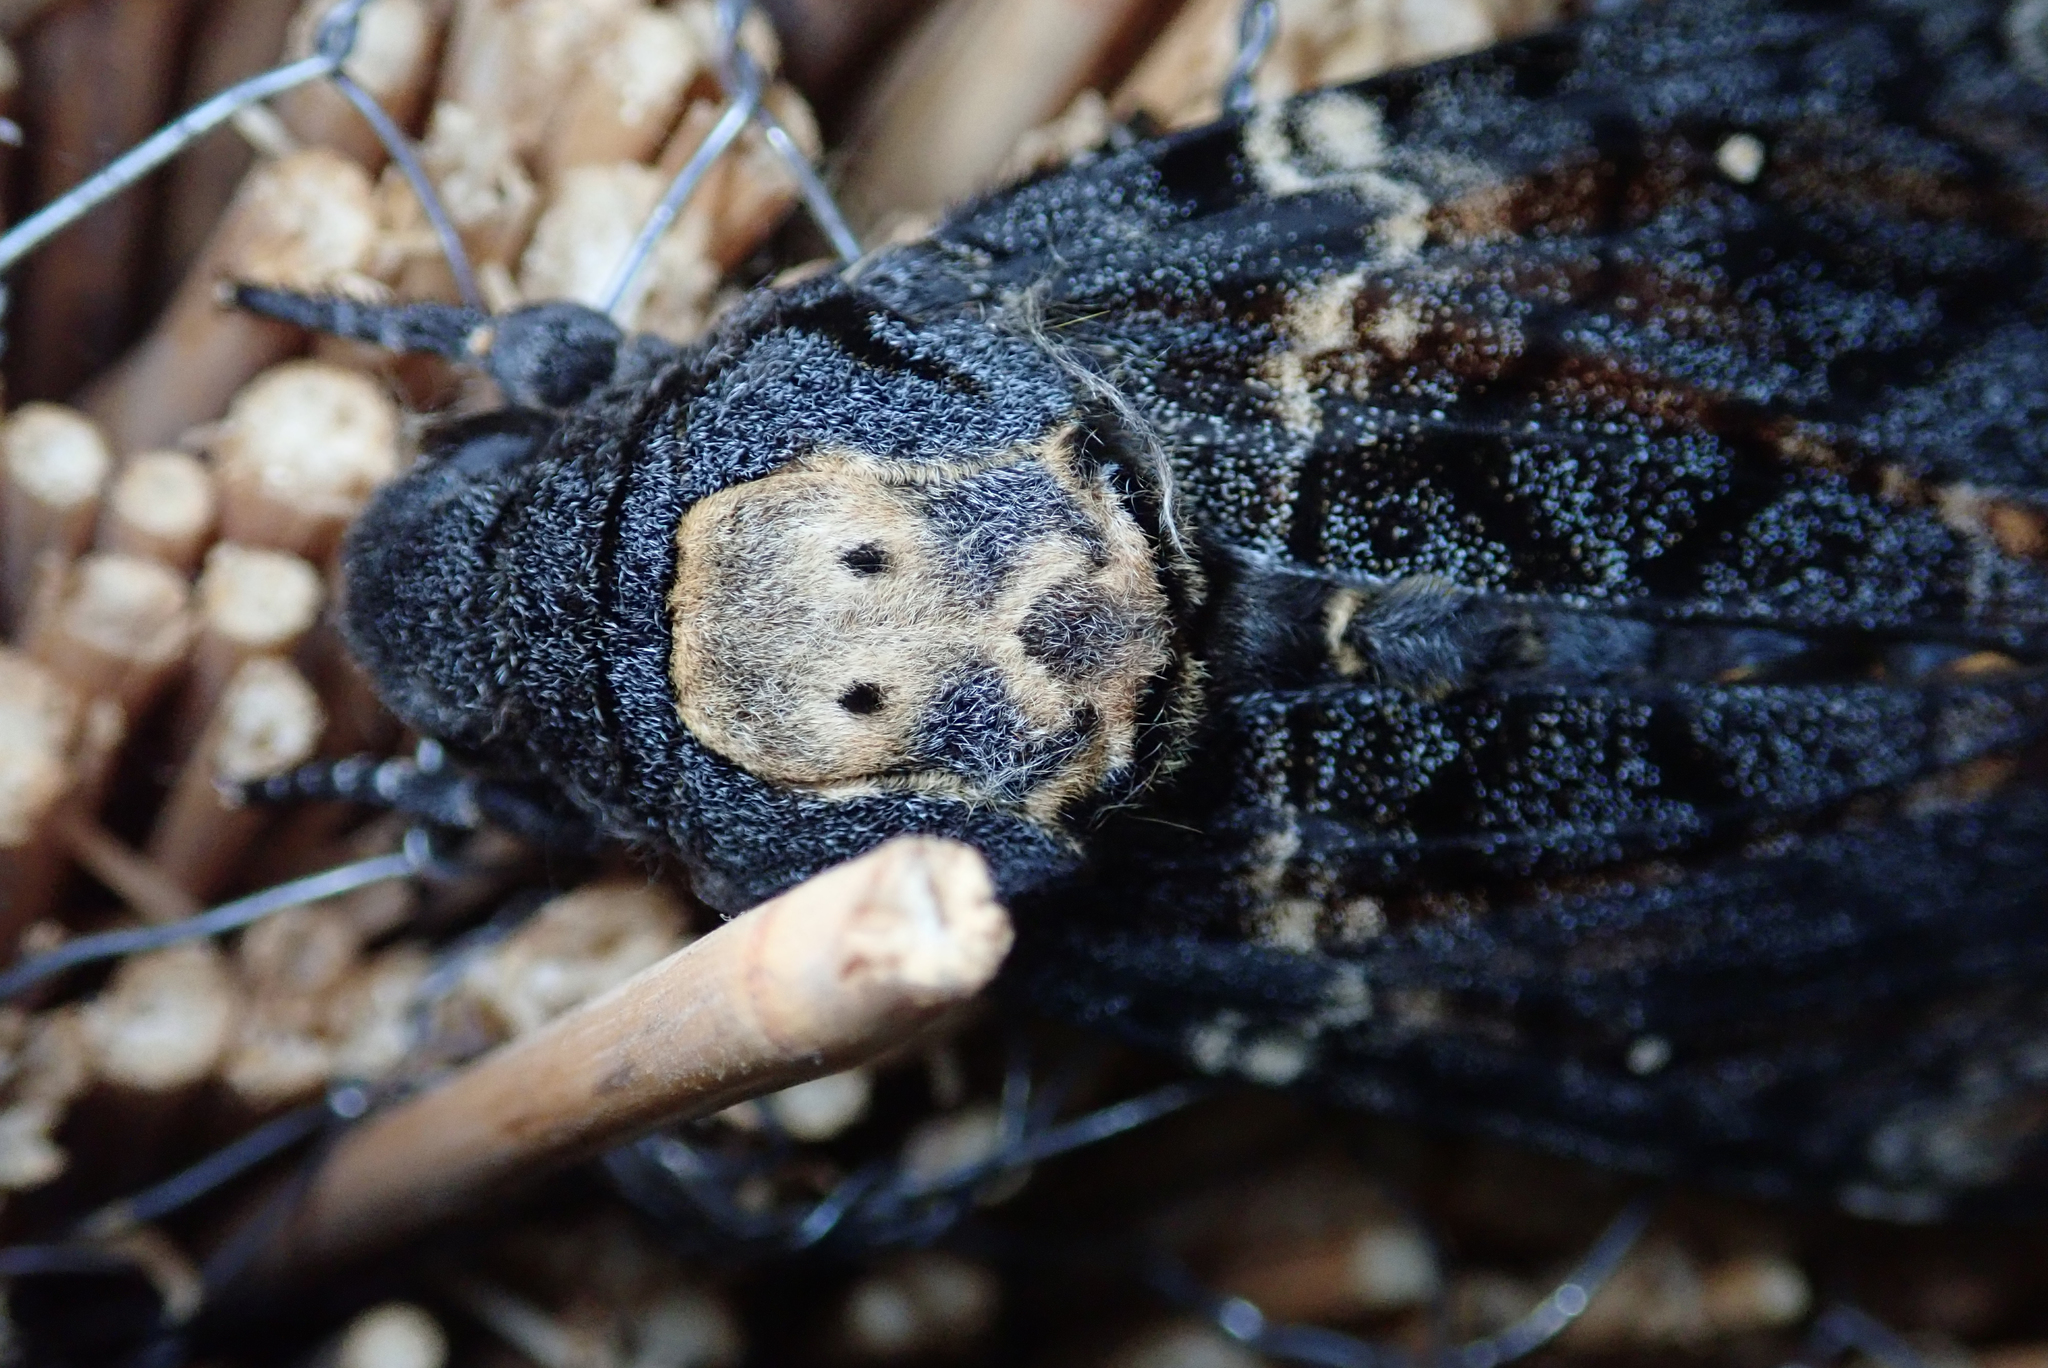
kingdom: Animalia
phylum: Arthropoda
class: Insecta
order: Lepidoptera
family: Sphingidae
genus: Acherontia
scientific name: Acherontia atropos
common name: Death's-head hawk moth
